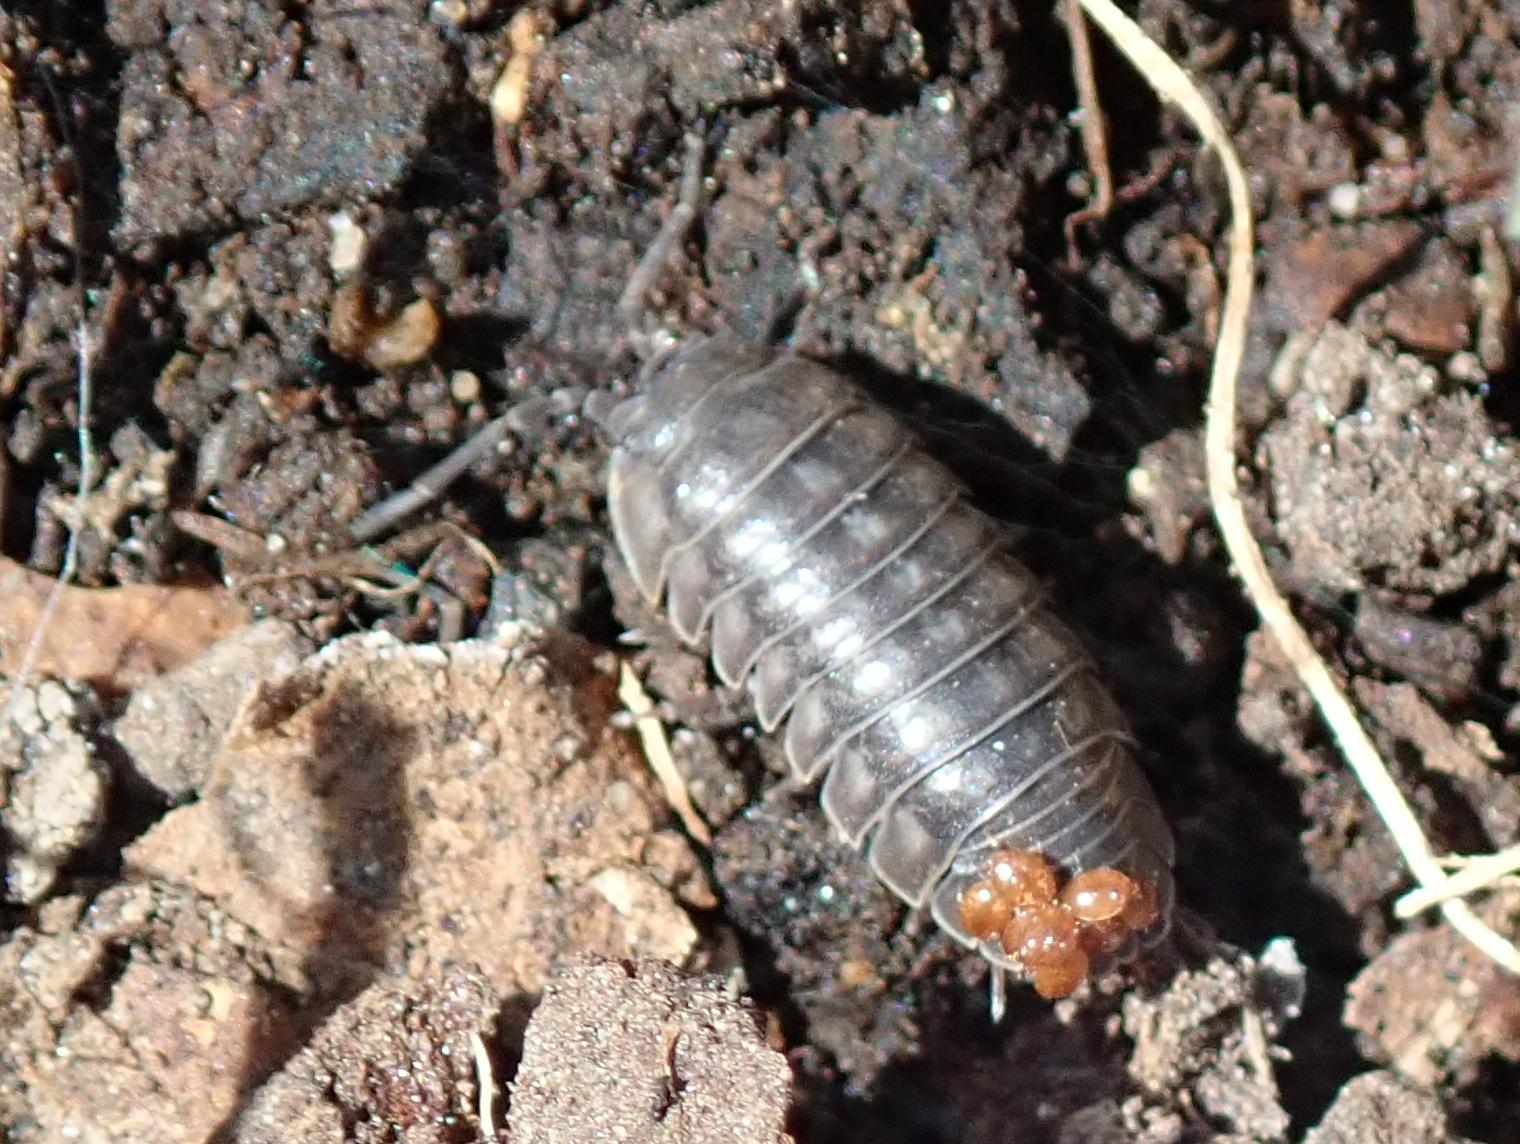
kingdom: Animalia
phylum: Arthropoda
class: Malacostraca
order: Isopoda
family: Armadillidiidae
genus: Armadillidium
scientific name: Armadillidium vulgare
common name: Common pill woodlouse
